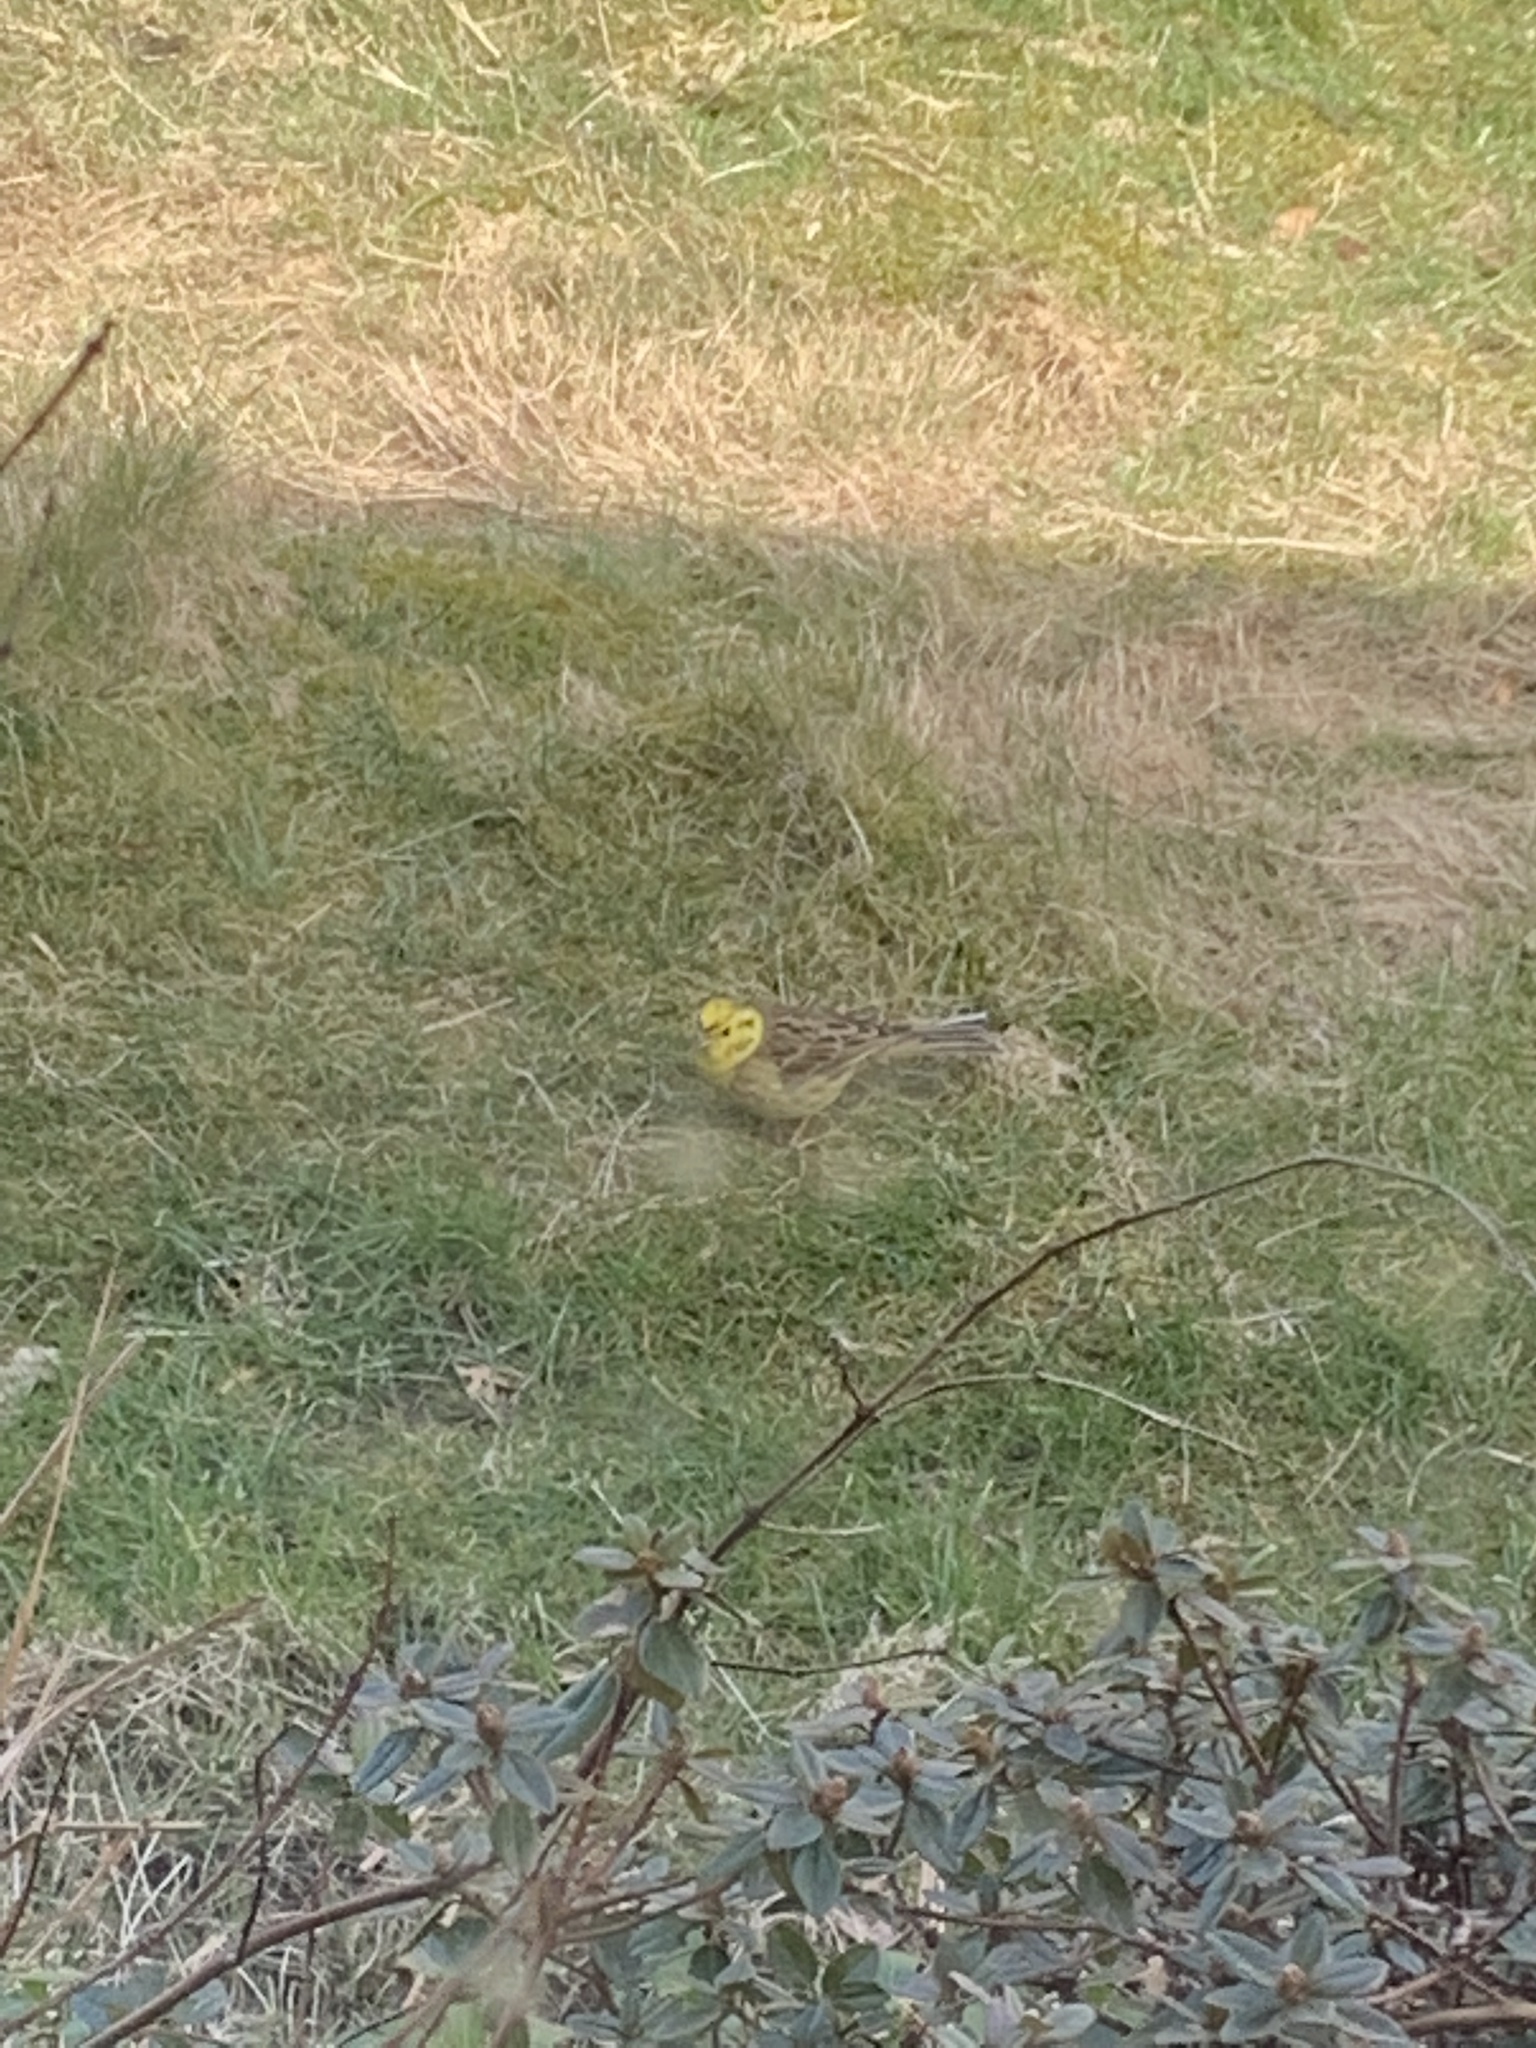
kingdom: Animalia
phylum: Chordata
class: Aves
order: Passeriformes
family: Emberizidae
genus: Emberiza
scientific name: Emberiza citrinella
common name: Yellowhammer
